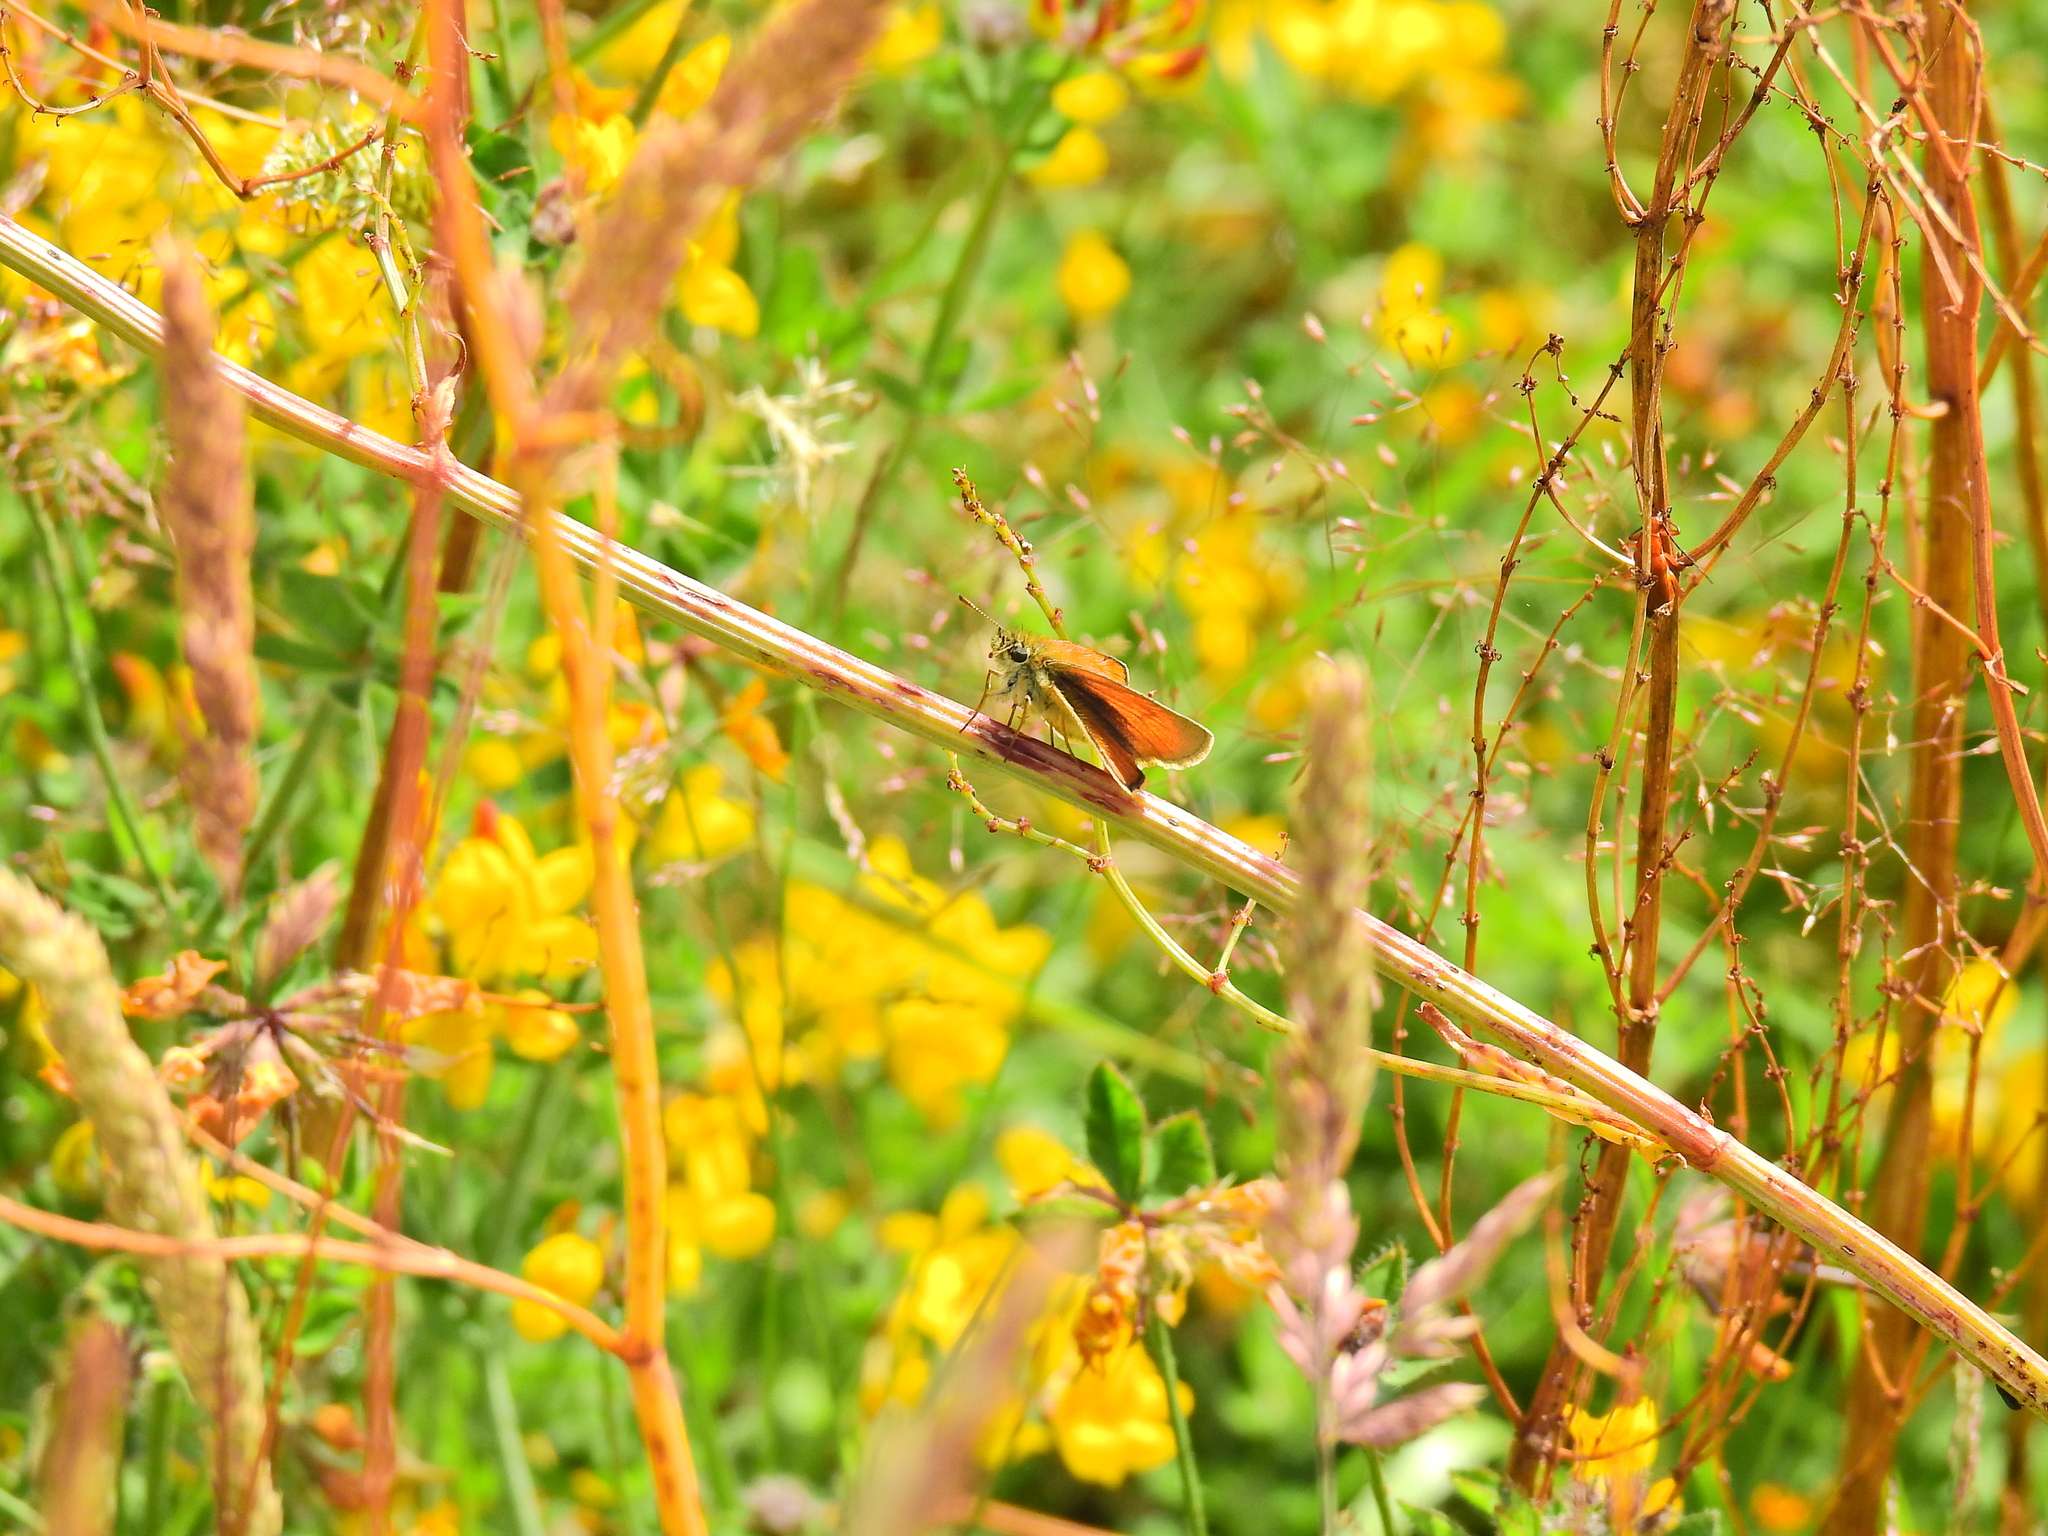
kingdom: Animalia
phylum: Arthropoda
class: Insecta
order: Lepidoptera
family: Hesperiidae
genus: Thymelicus
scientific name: Thymelicus sylvestris
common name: Small skipper
